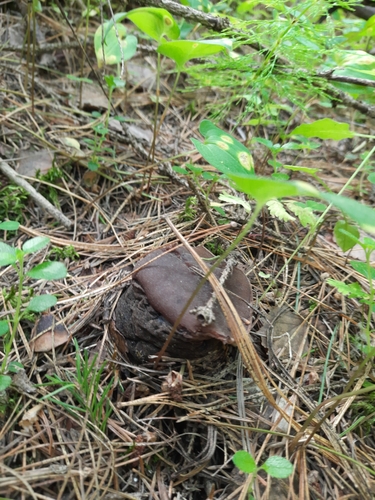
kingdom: Fungi
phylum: Ascomycota
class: Pezizomycetes
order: Pezizales
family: Sarcosomataceae
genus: Sarcosoma
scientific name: Sarcosoma globosum
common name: Charred-pancake cup
